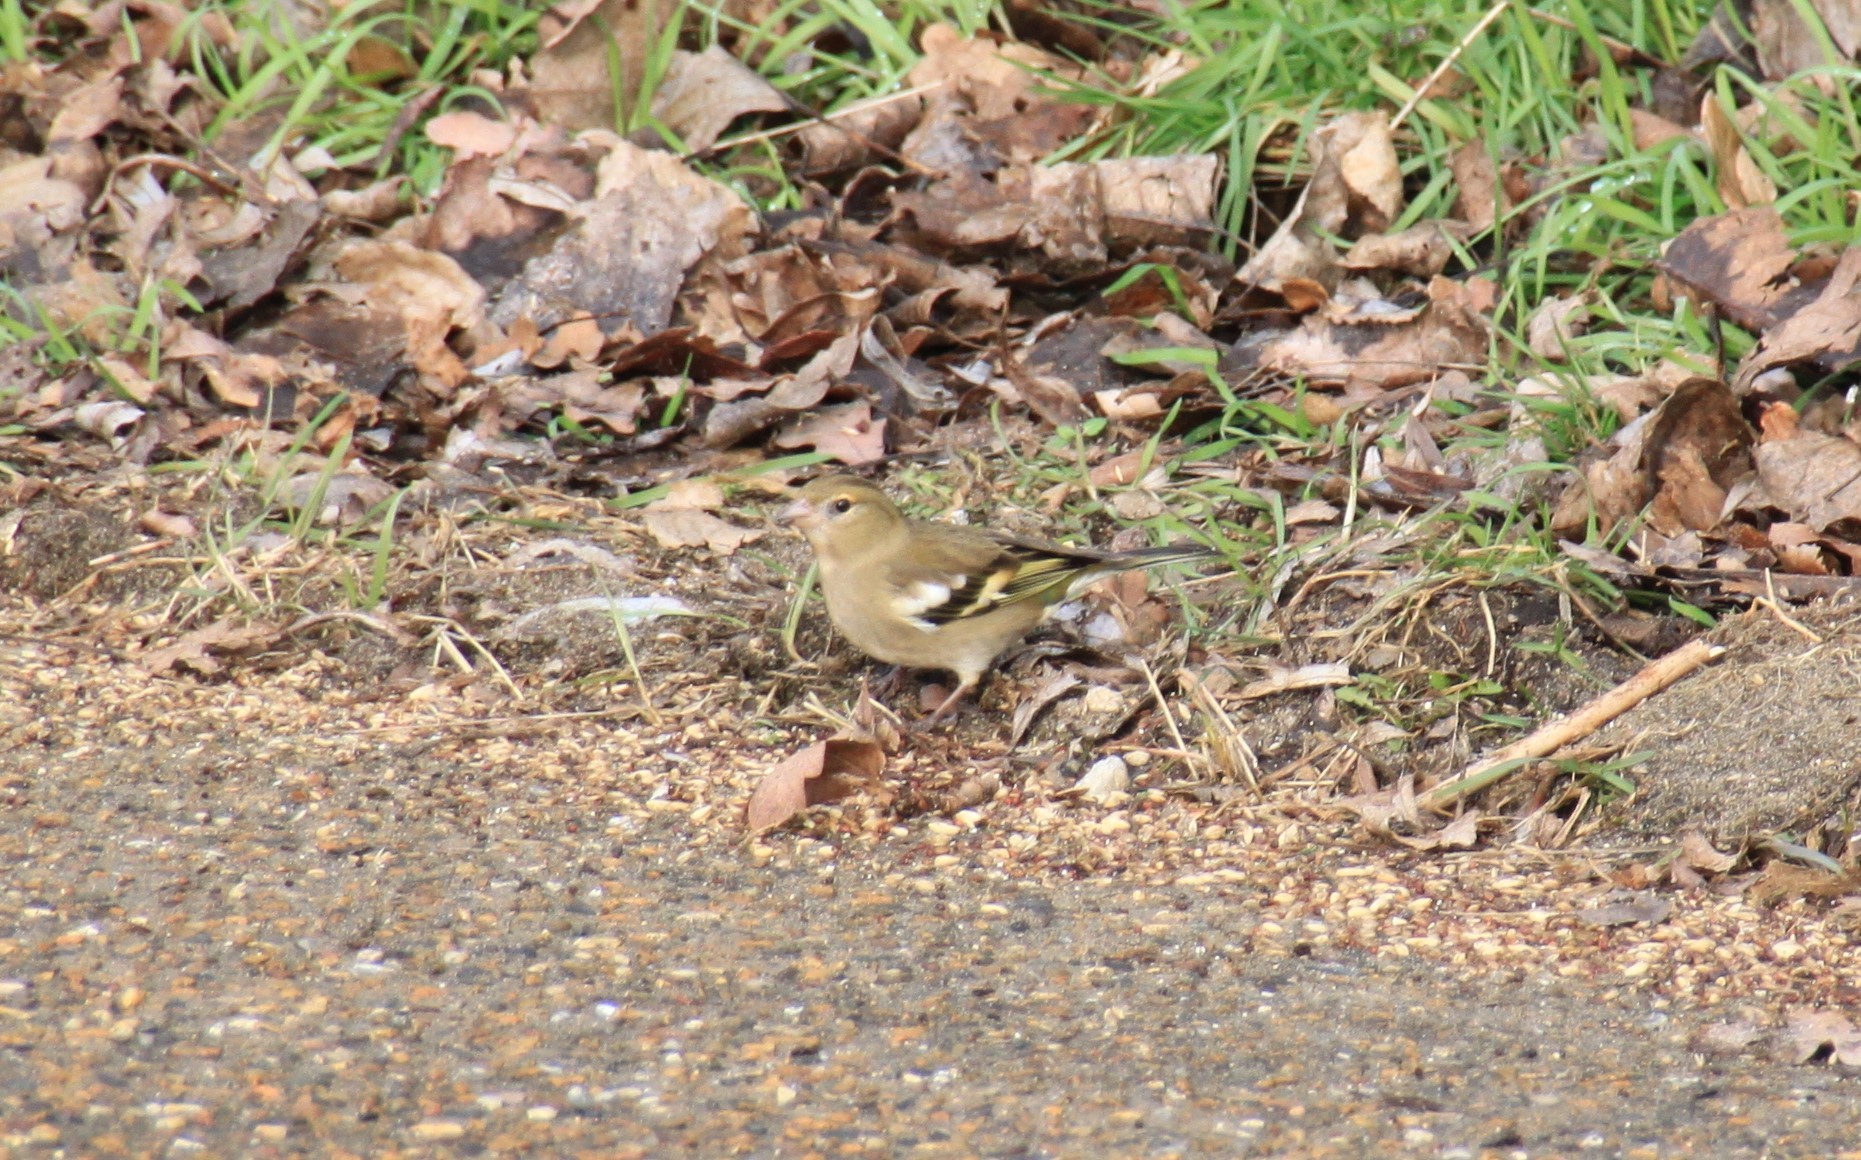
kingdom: Plantae
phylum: Tracheophyta
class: Liliopsida
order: Poales
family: Poaceae
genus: Chloris
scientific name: Chloris chloris
